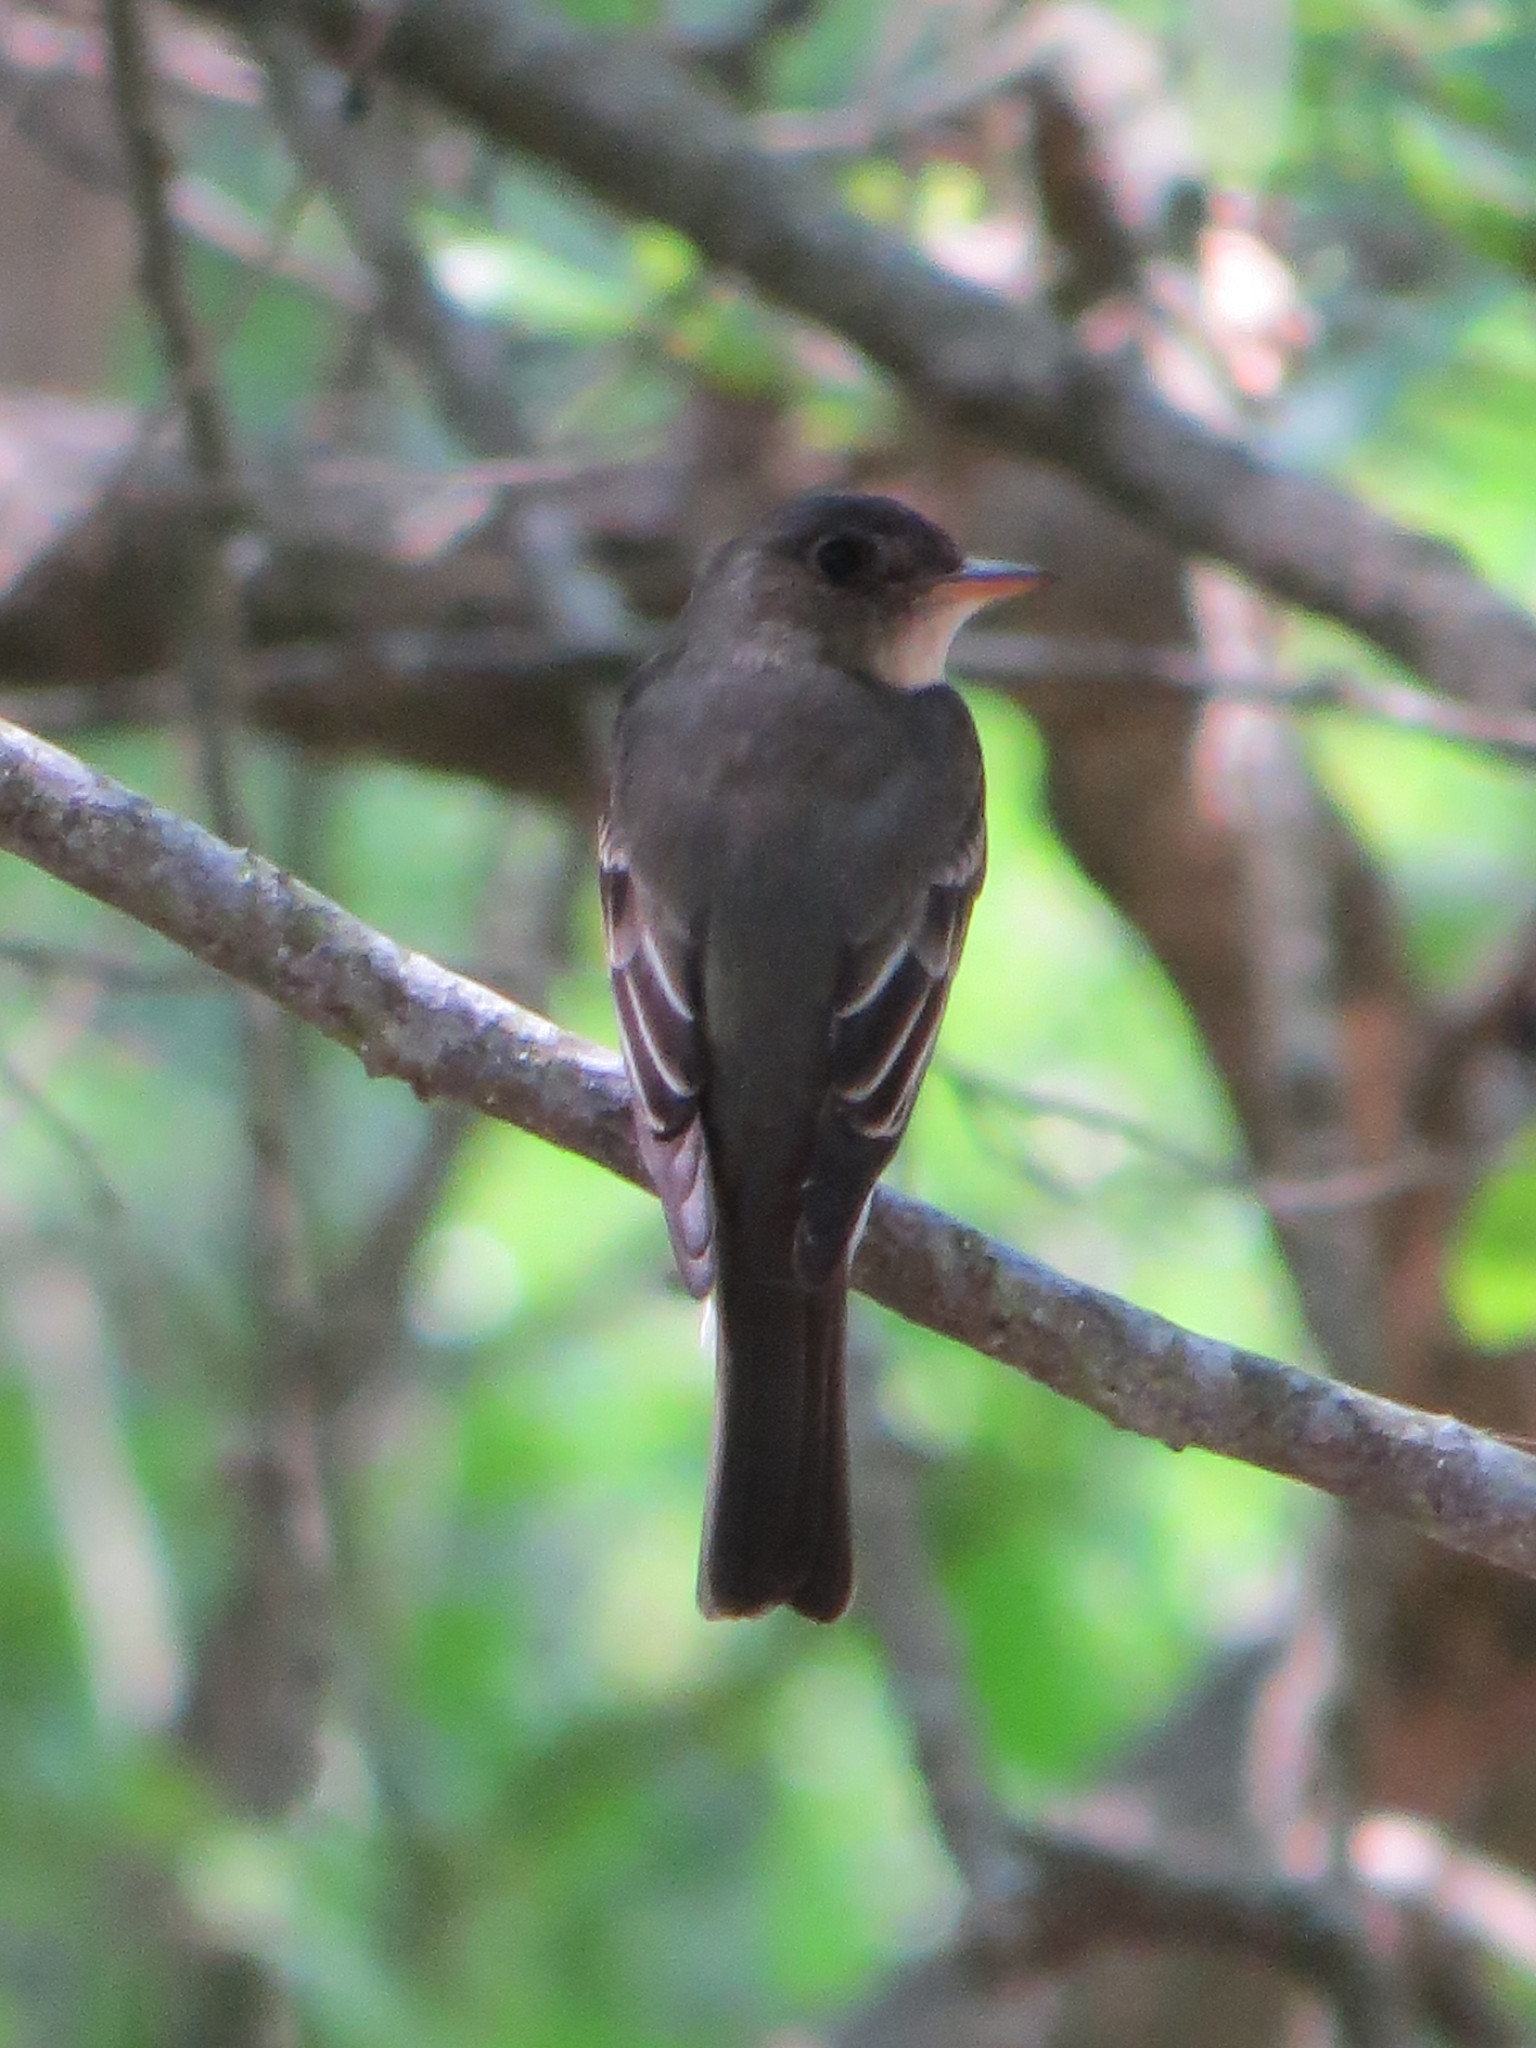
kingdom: Animalia
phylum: Chordata
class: Aves
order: Passeriformes
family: Tyrannidae
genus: Contopus
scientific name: Contopus virens
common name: Eastern wood-pewee
